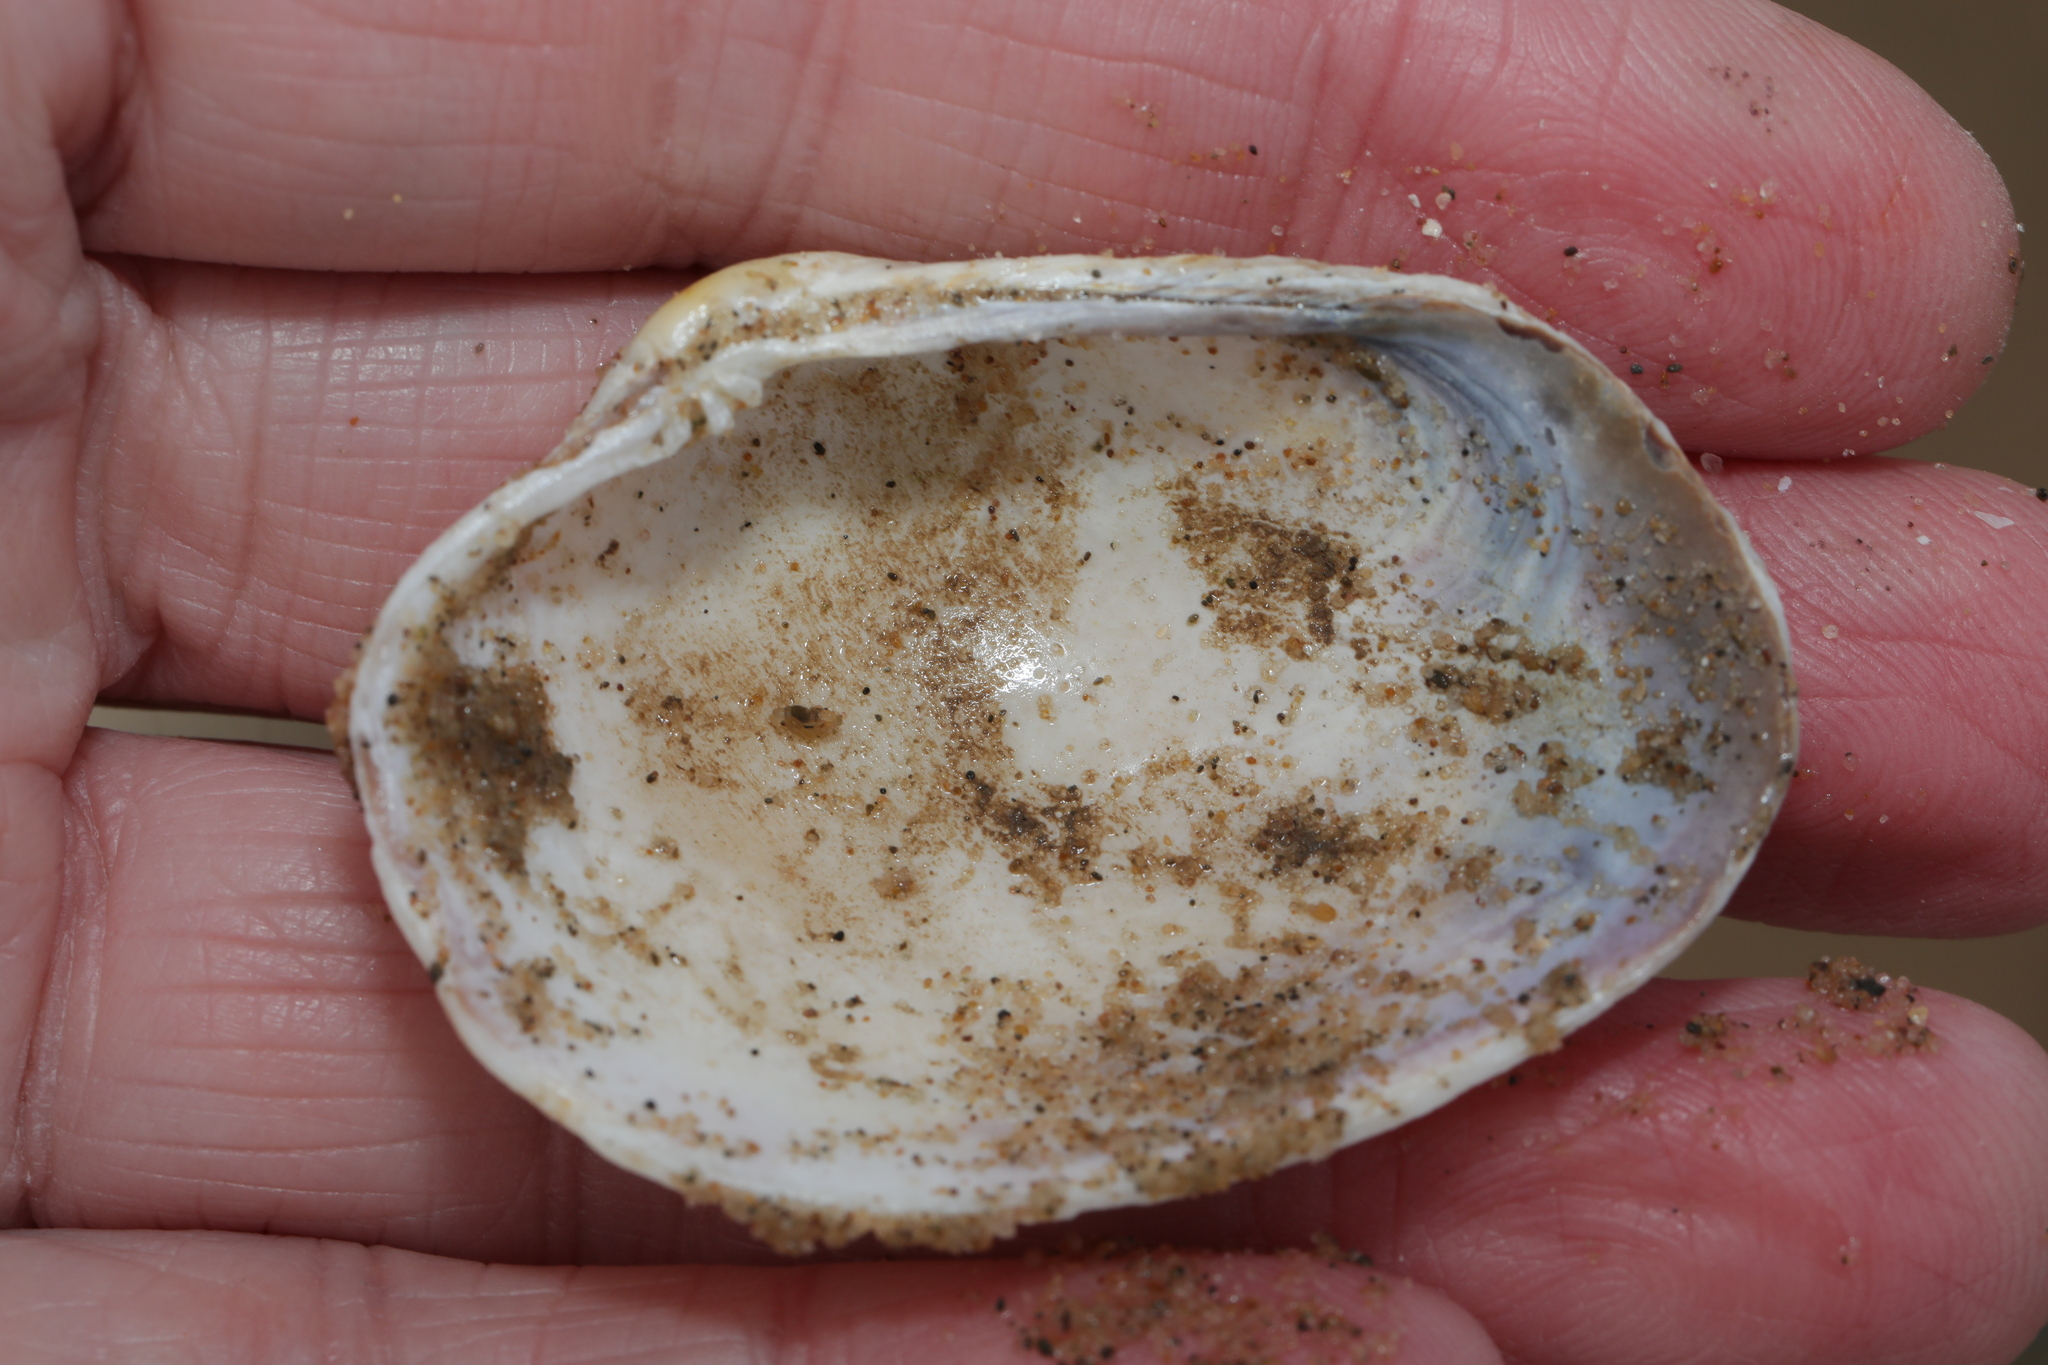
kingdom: Animalia
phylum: Mollusca
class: Bivalvia
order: Venerida
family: Veneridae
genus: Venerupis
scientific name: Venerupis corrugata
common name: Pullet carpet shell
